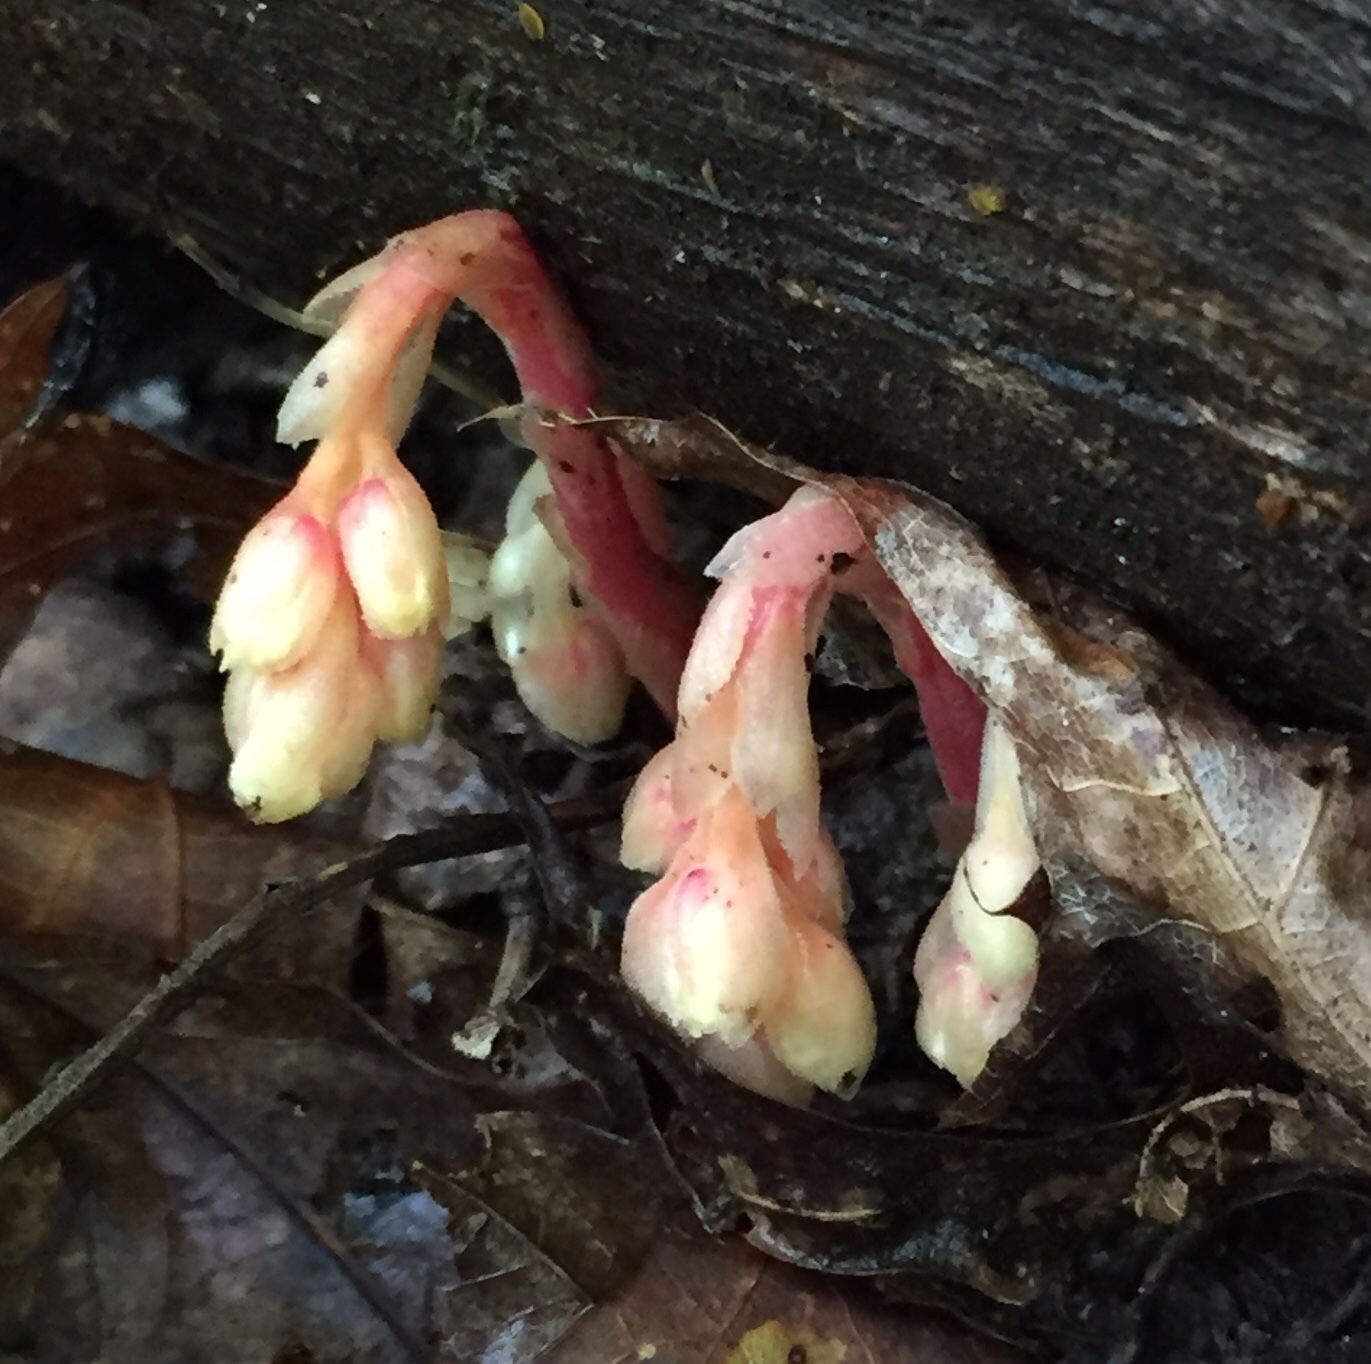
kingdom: Plantae
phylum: Tracheophyta
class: Magnoliopsida
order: Ericales
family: Ericaceae
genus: Hypopitys
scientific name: Hypopitys monotropa
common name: Yellow bird's-nest
